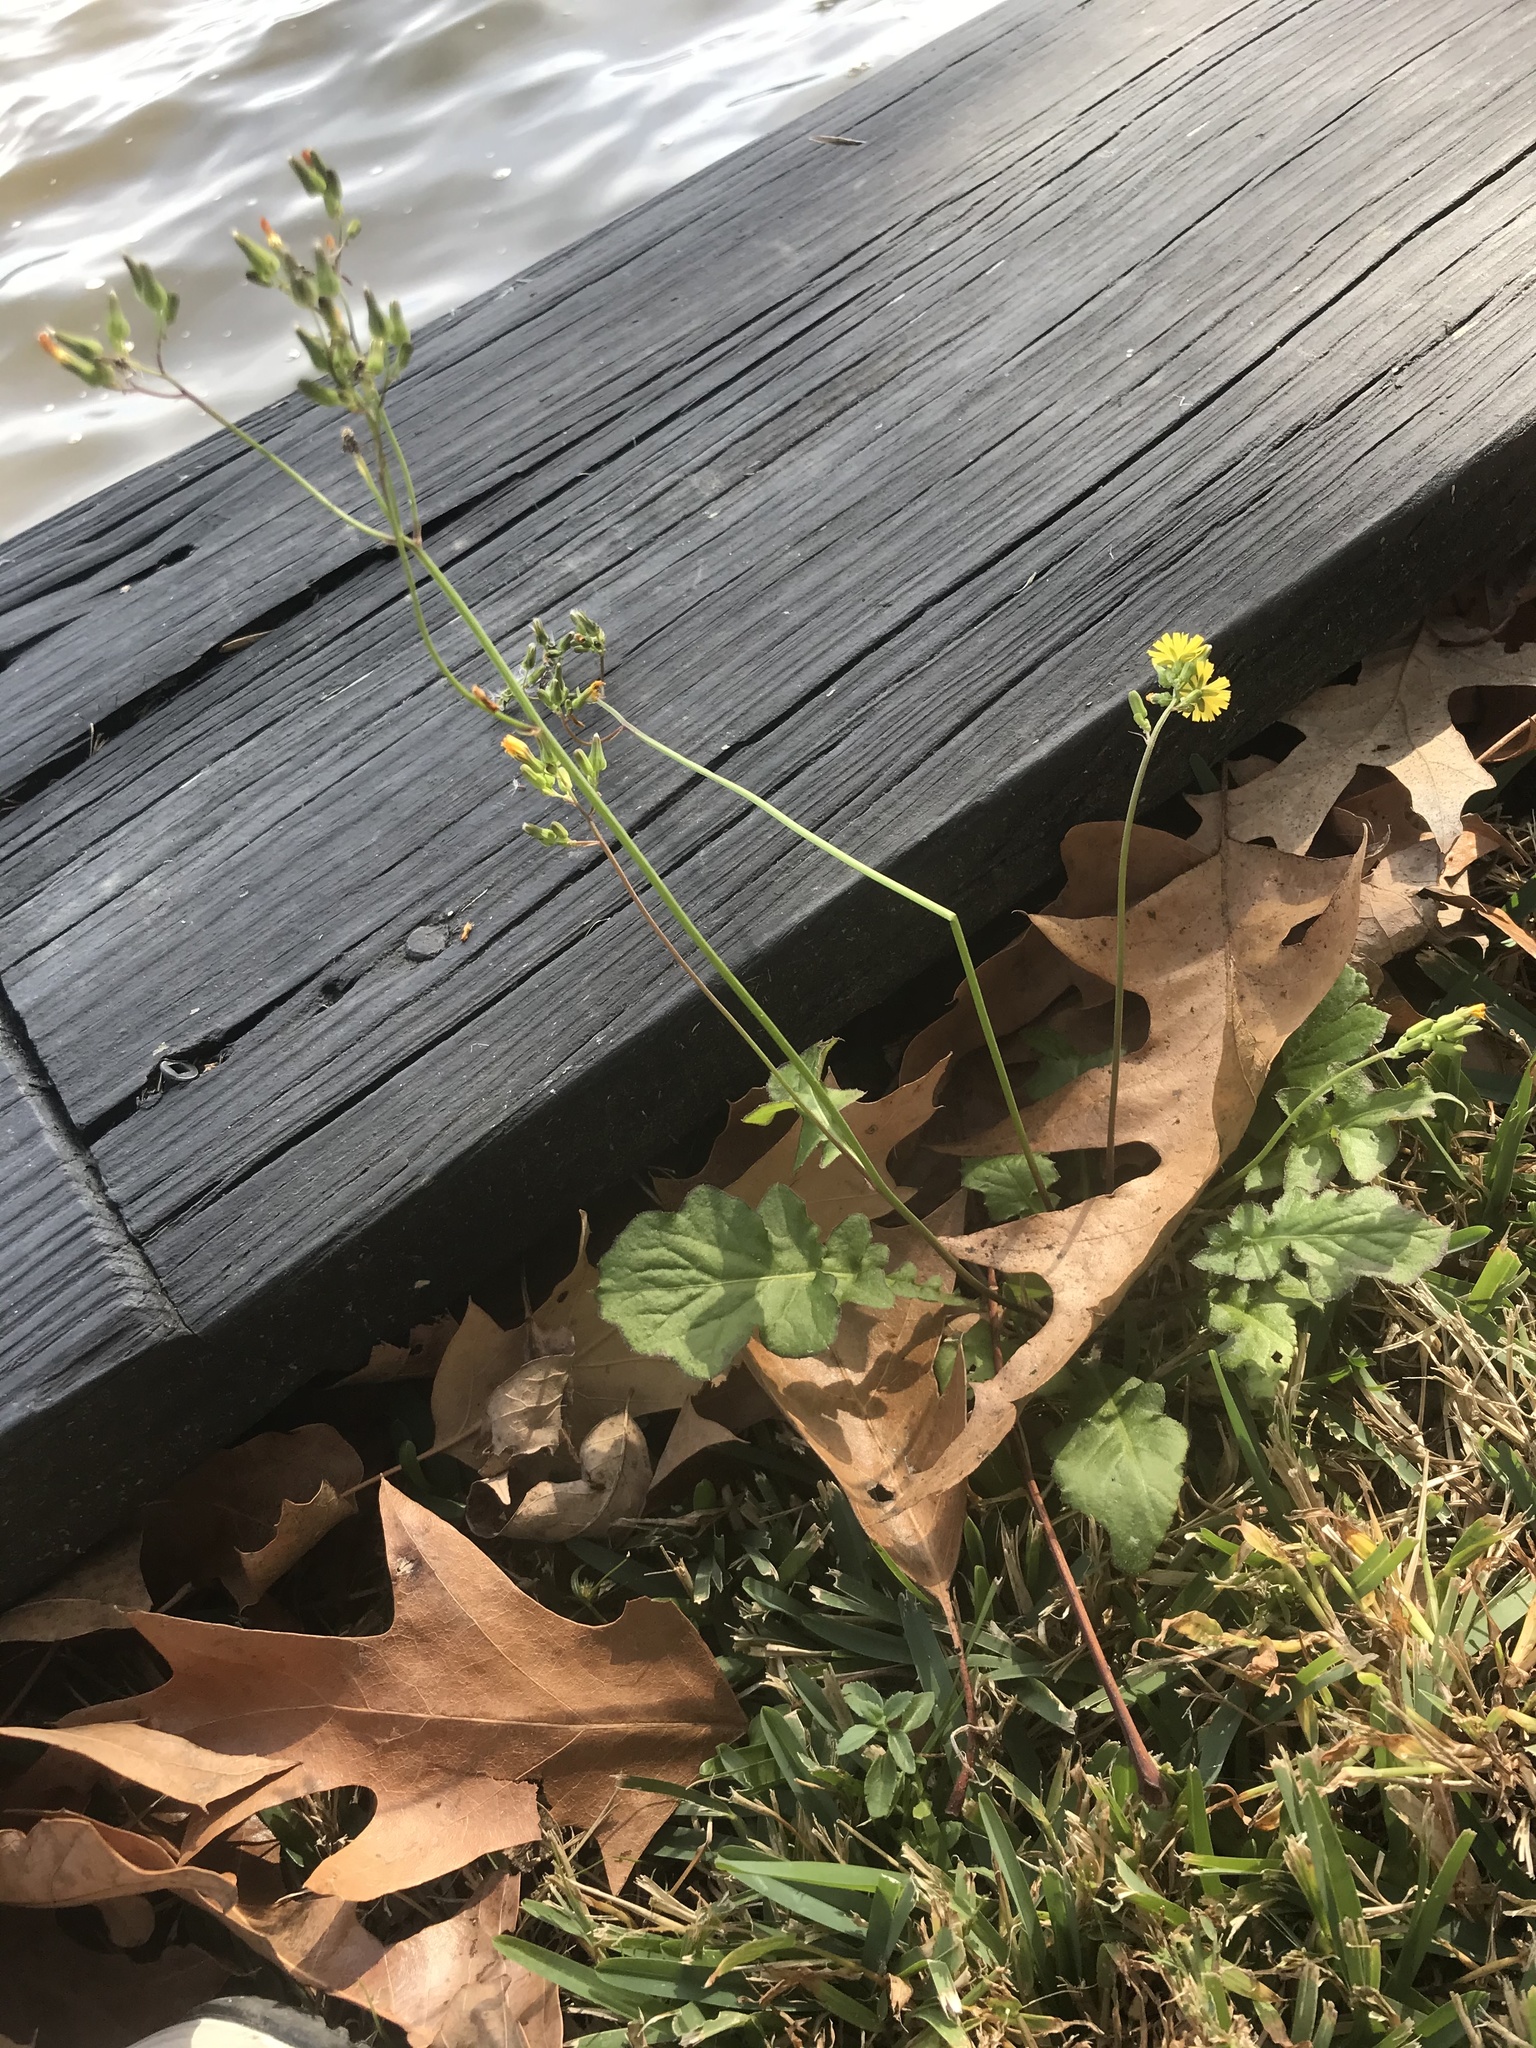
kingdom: Plantae
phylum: Tracheophyta
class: Magnoliopsida
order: Asterales
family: Asteraceae
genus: Youngia
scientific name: Youngia japonica
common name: Oriental false hawksbeard
